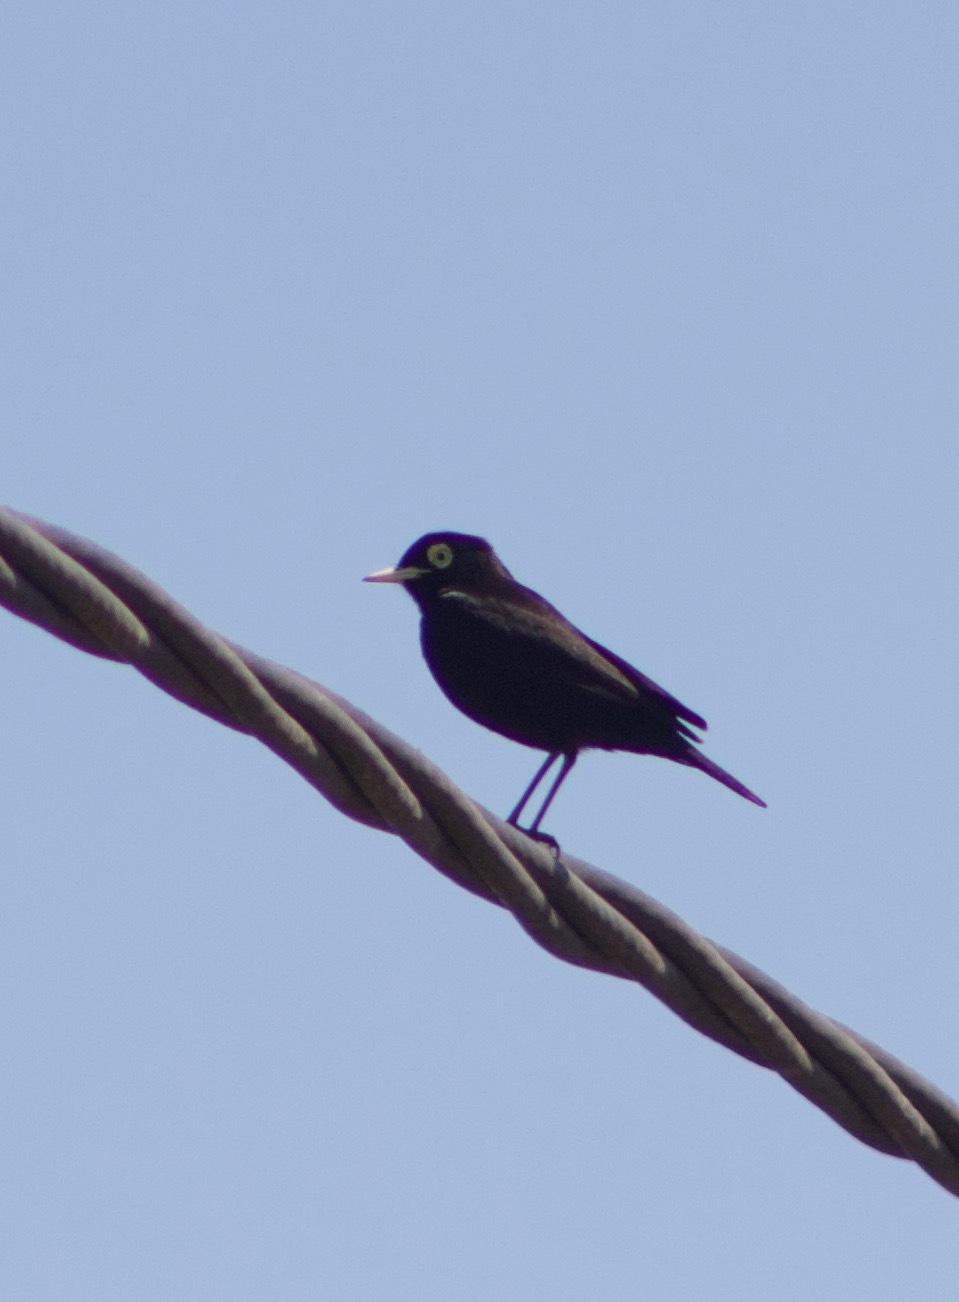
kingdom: Animalia
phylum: Chordata
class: Aves
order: Passeriformes
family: Tyrannidae
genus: Hymenops
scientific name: Hymenops perspicillatus
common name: Spectacled tyrant
